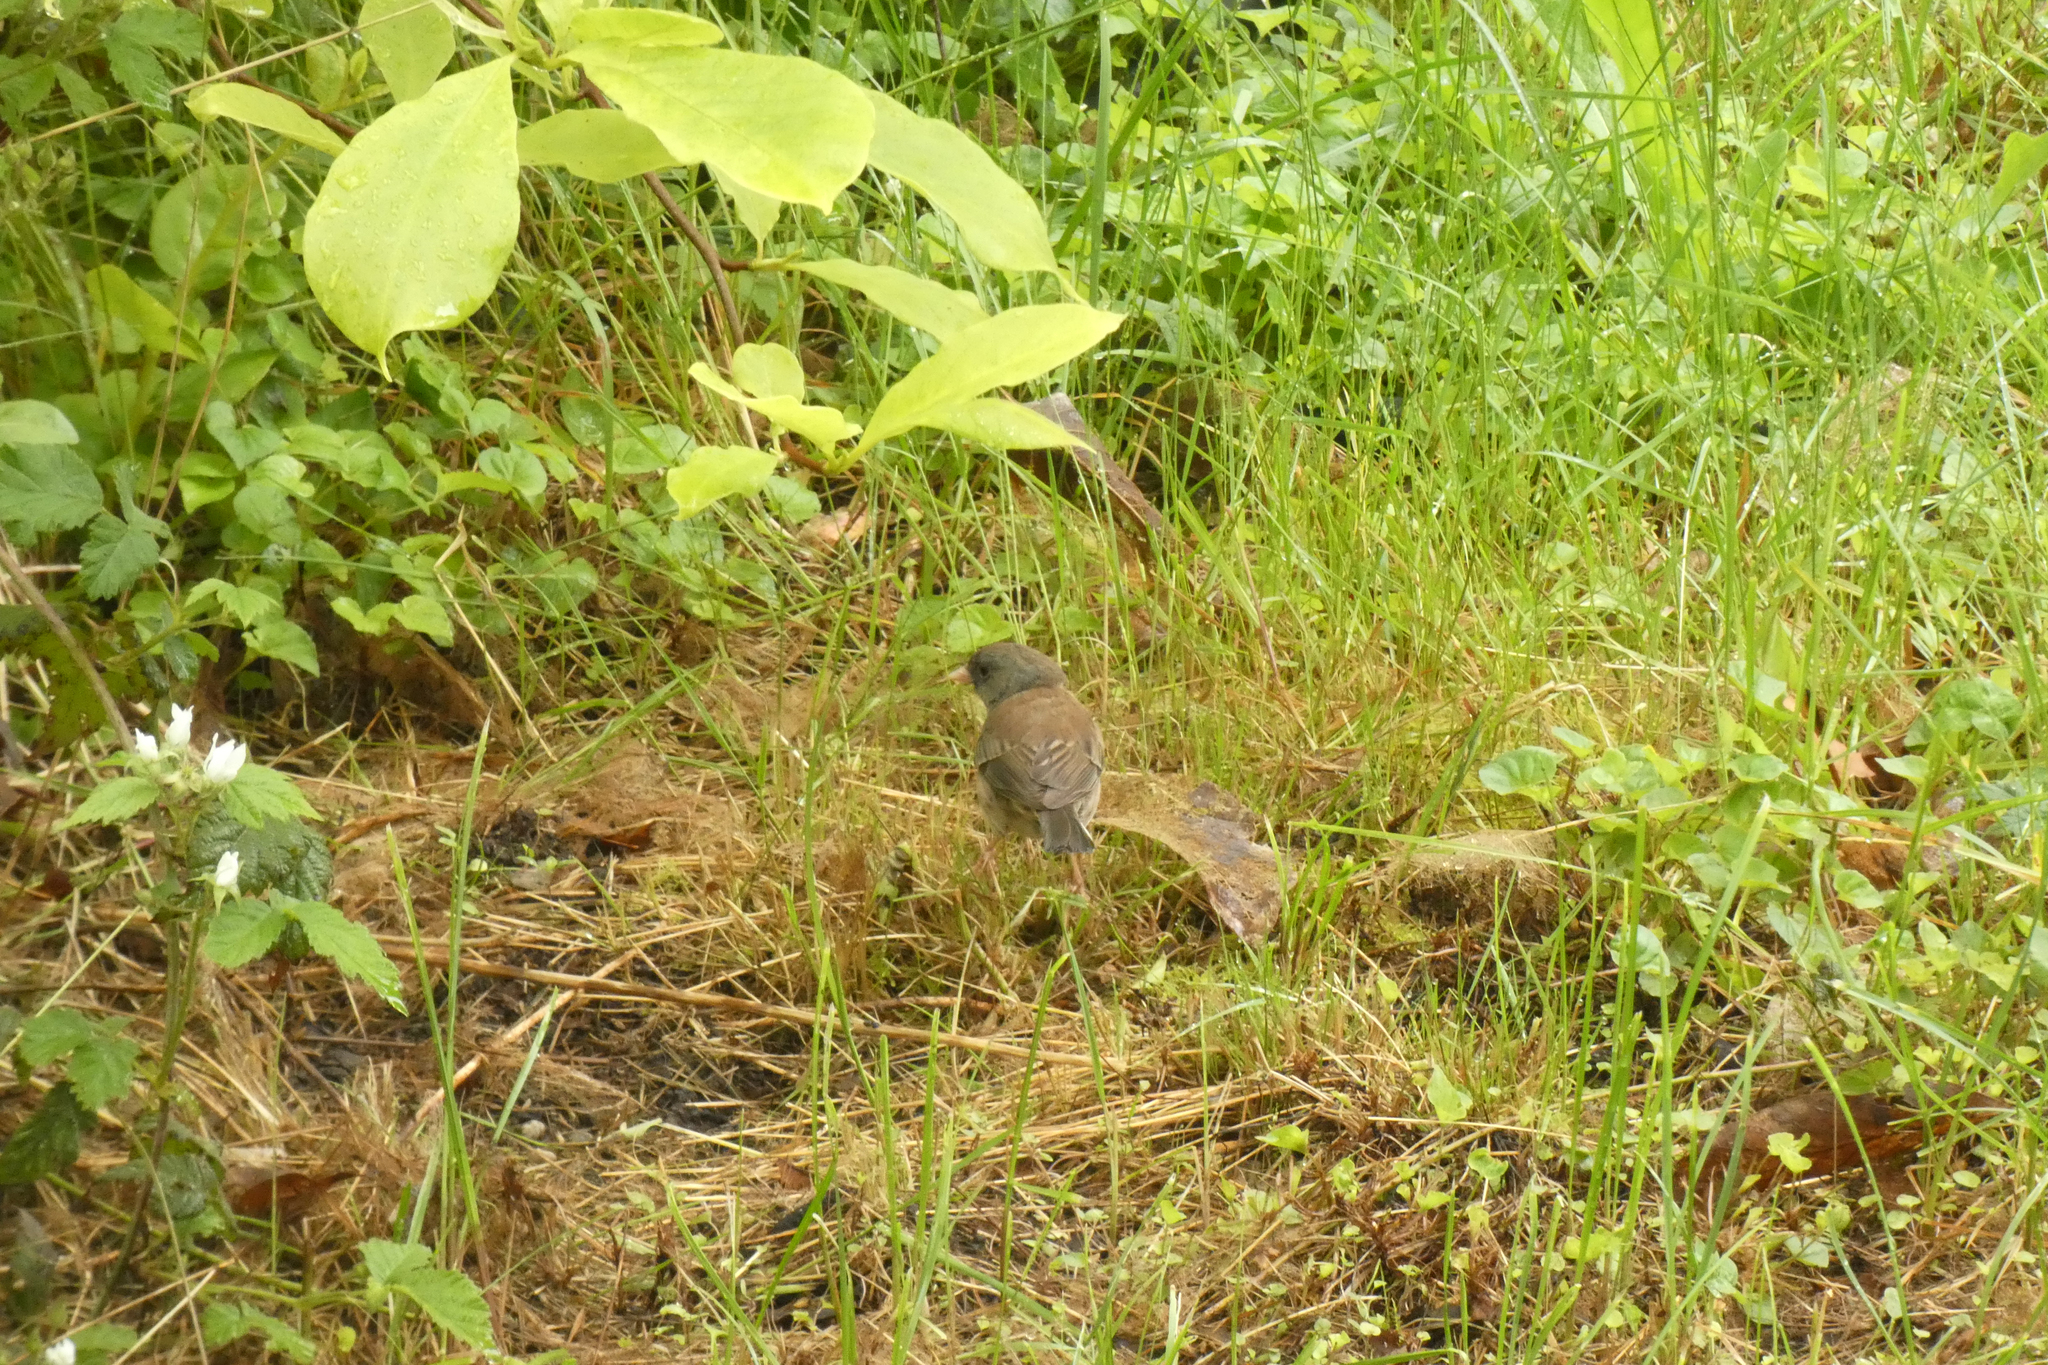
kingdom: Animalia
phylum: Chordata
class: Aves
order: Passeriformes
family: Passerellidae
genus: Junco
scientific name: Junco hyemalis
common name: Dark-eyed junco
